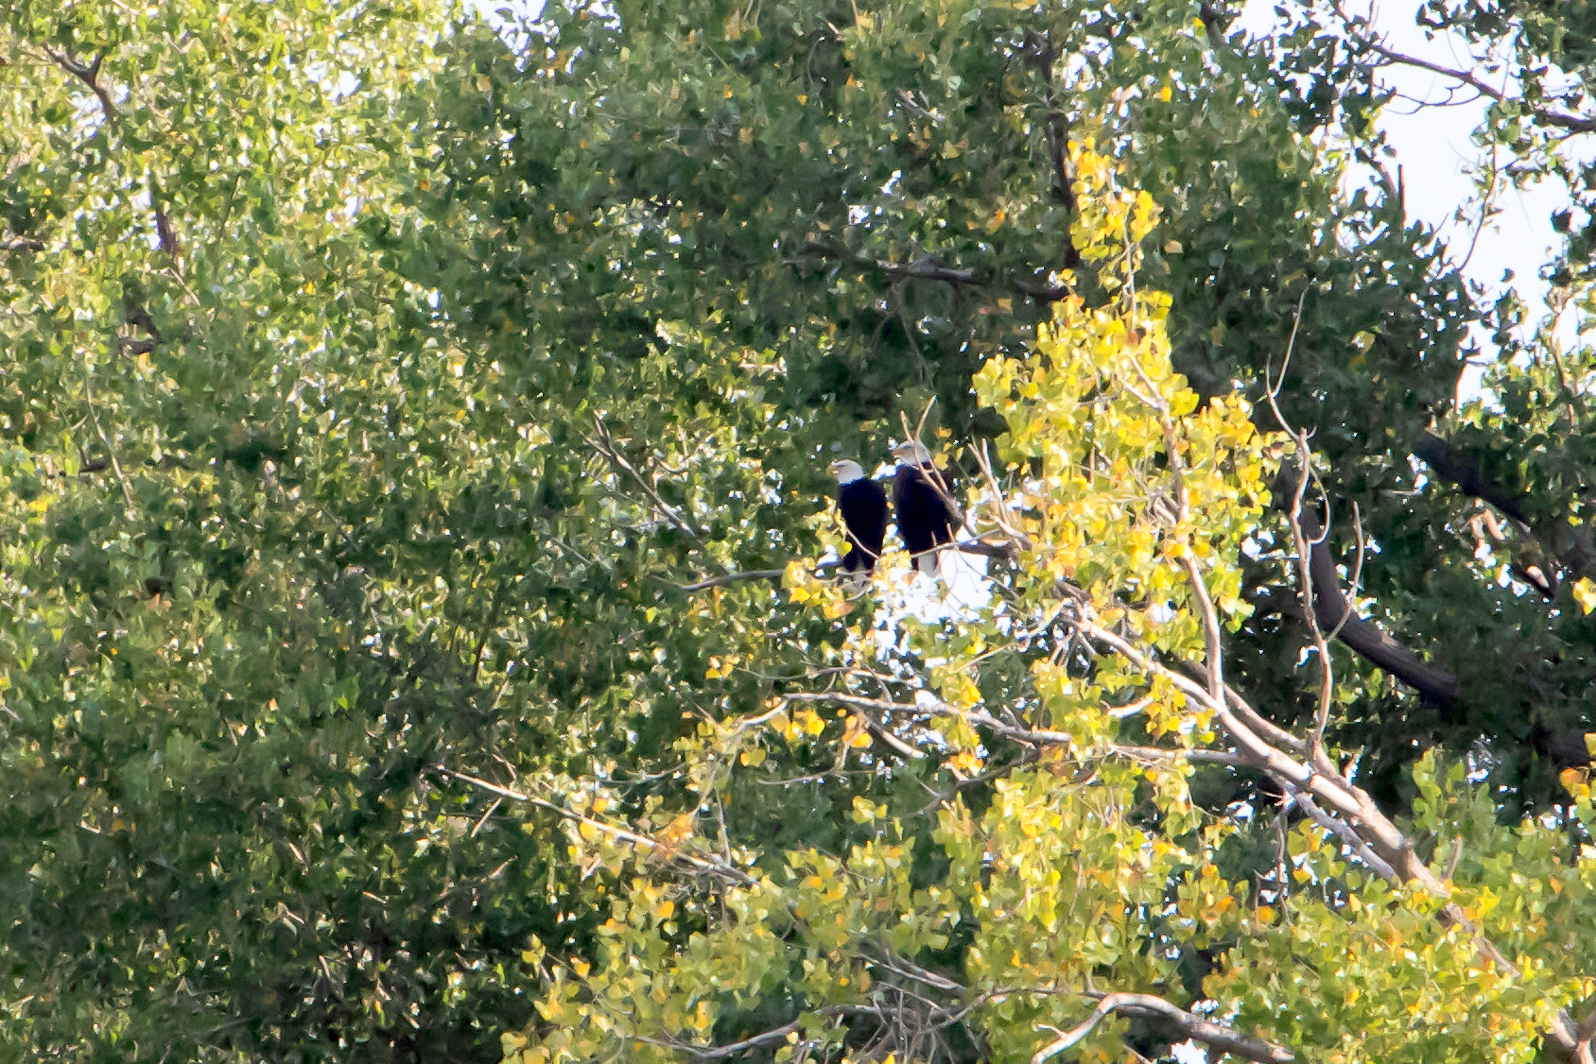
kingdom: Animalia
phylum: Chordata
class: Aves
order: Accipitriformes
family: Accipitridae
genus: Haliaeetus
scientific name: Haliaeetus leucocephalus
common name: Bald eagle
